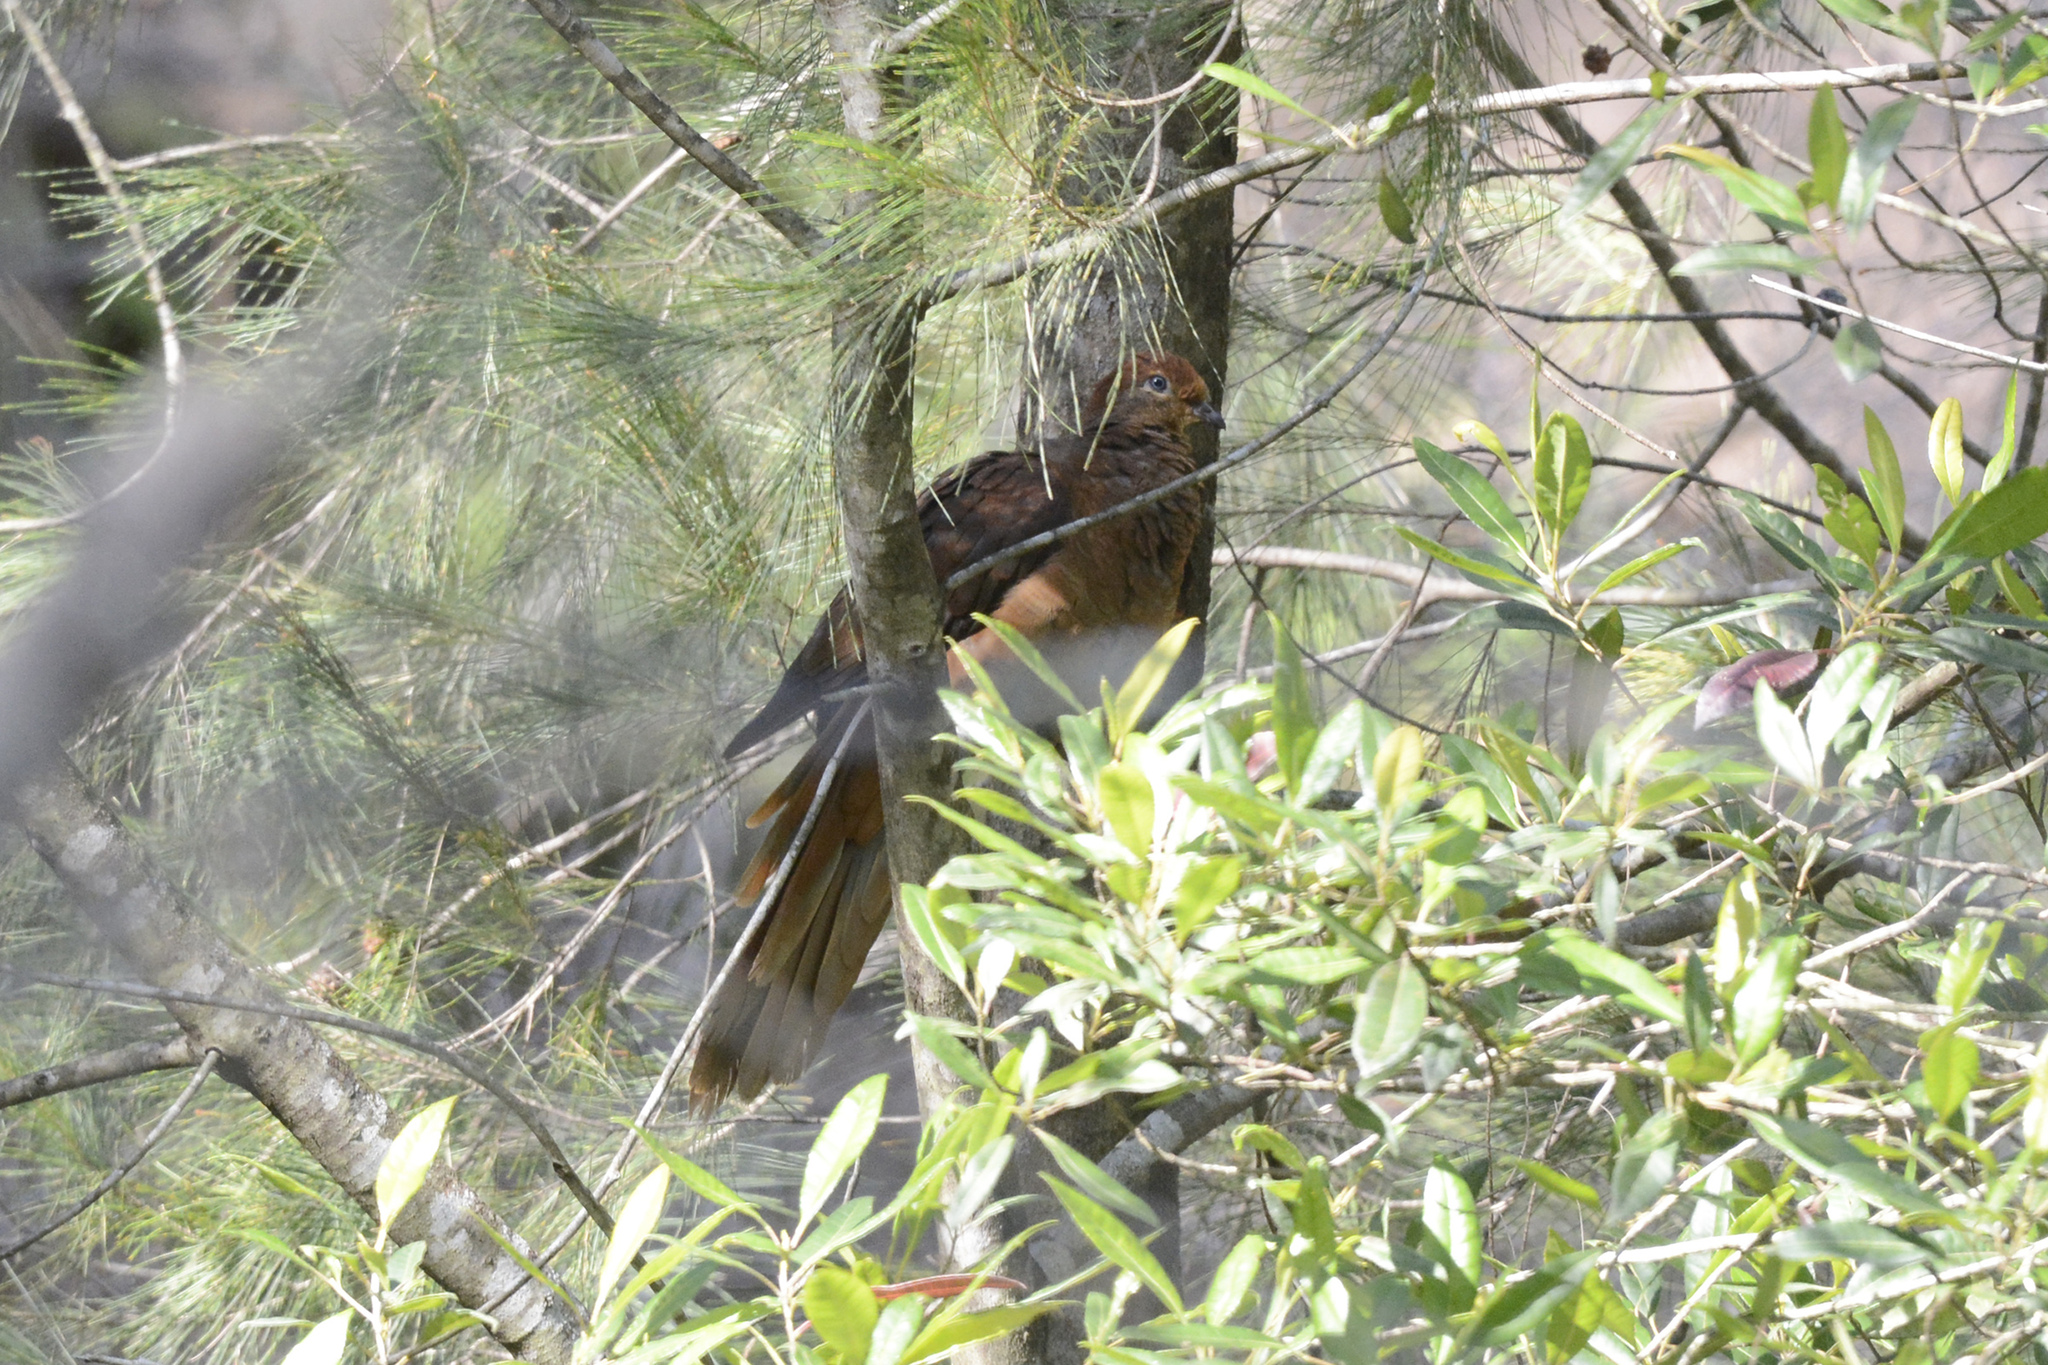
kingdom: Animalia
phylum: Chordata
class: Aves
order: Columbiformes
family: Columbidae
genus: Macropygia
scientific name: Macropygia phasianella
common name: Brown cuckoo-dove
